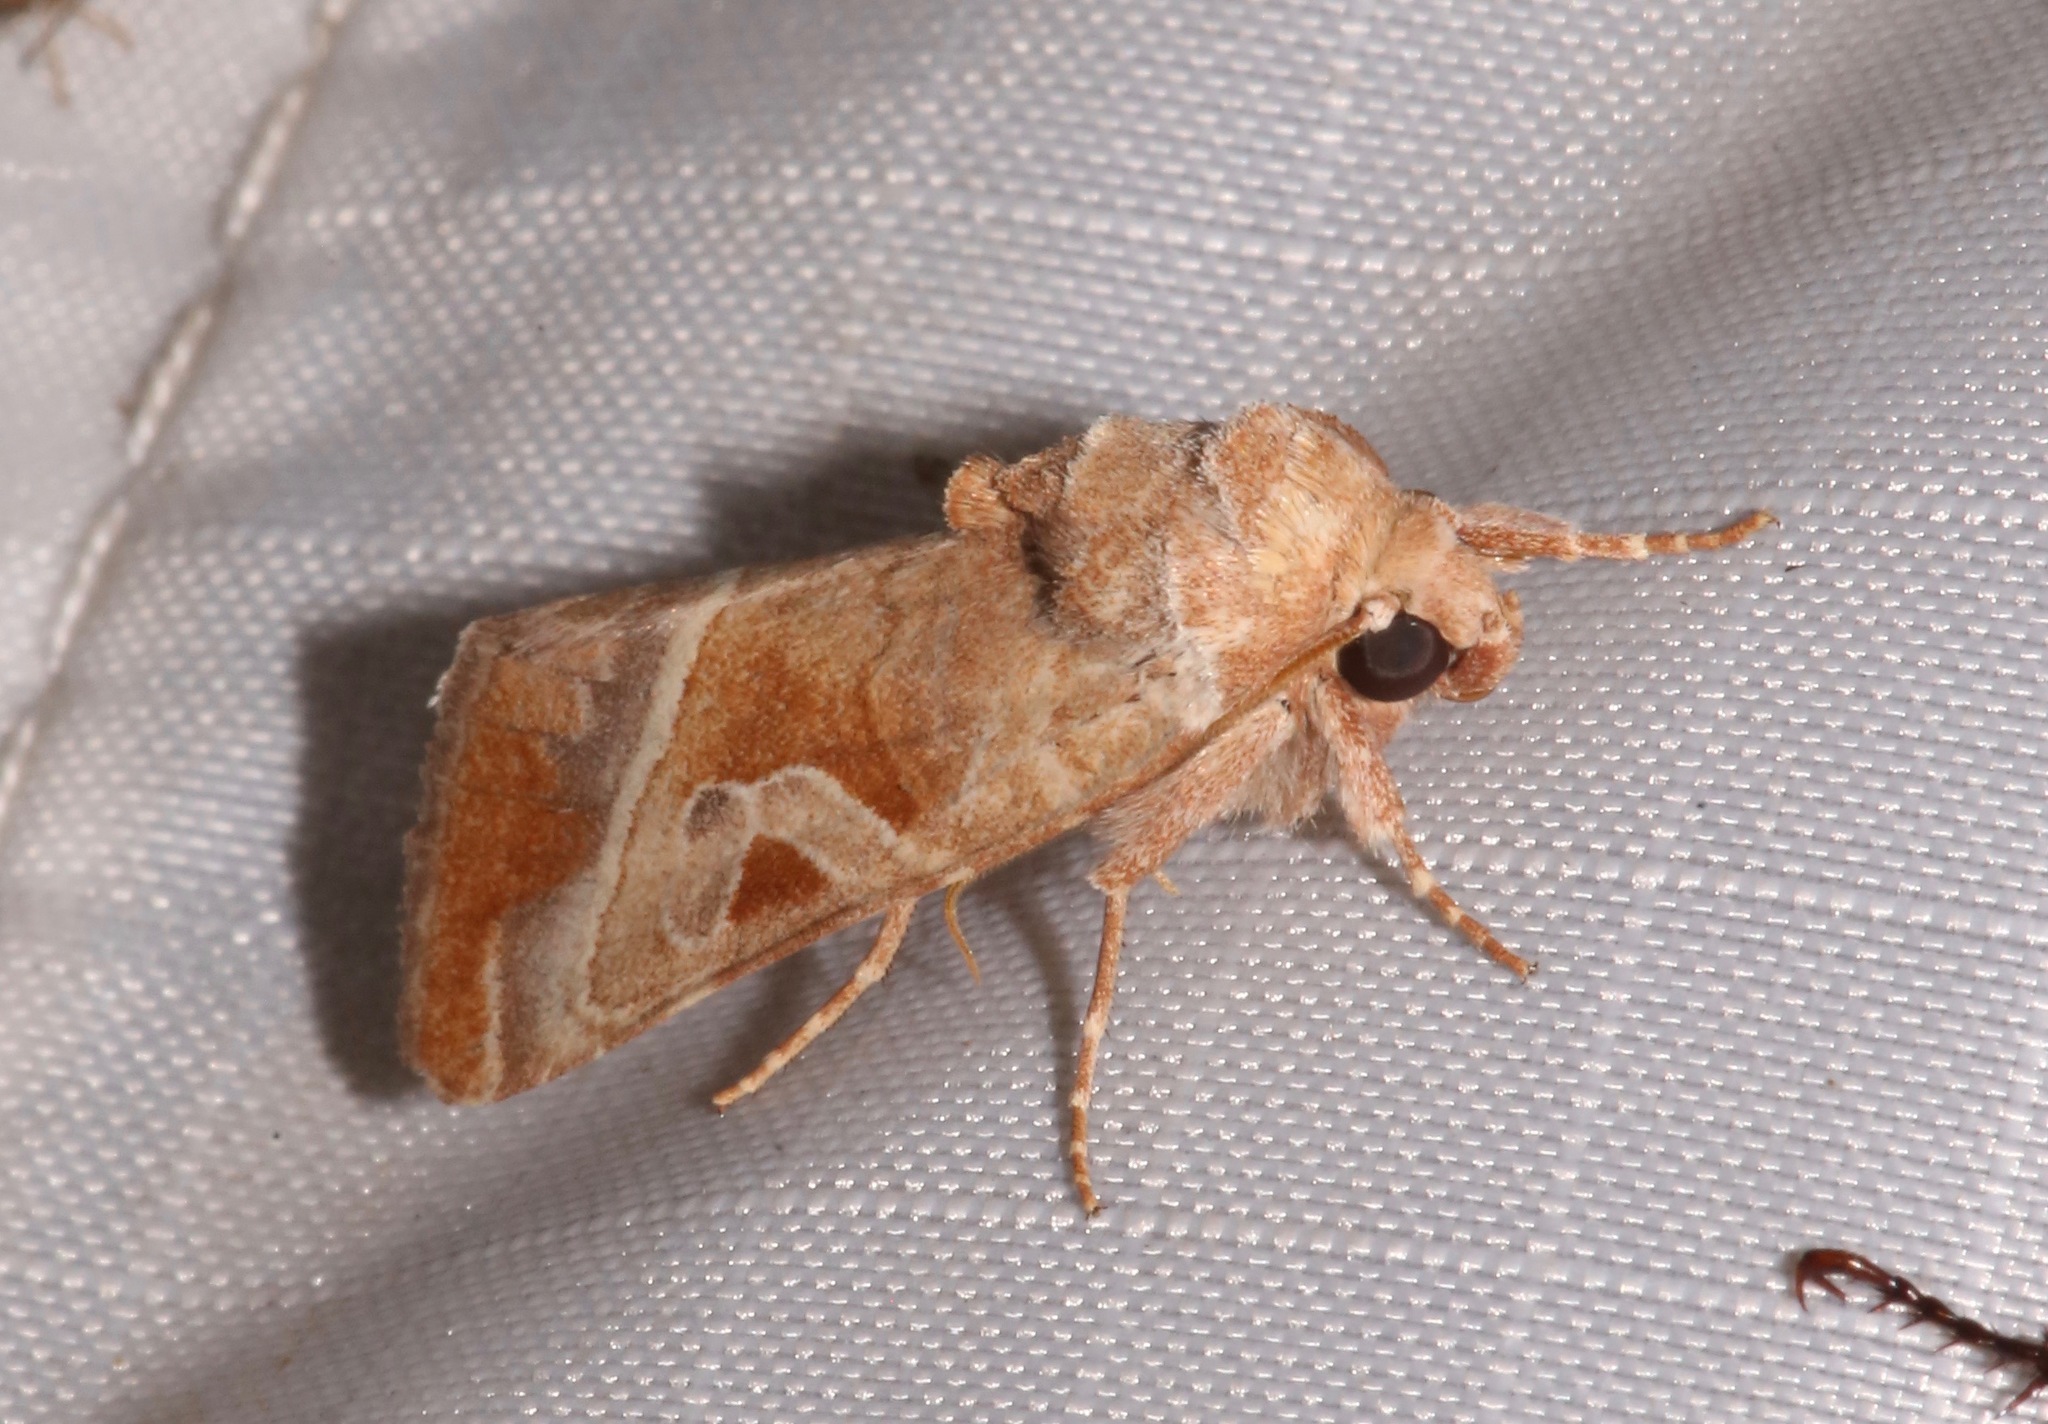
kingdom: Animalia
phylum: Arthropoda
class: Insecta
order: Lepidoptera
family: Noctuidae
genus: Hexorthodes
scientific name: Hexorthodes accurata
